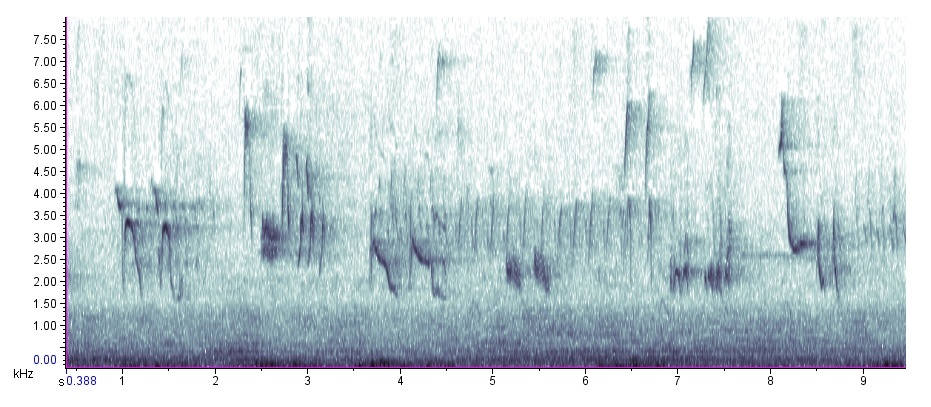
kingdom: Animalia
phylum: Chordata
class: Aves
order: Passeriformes
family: Mimidae
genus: Toxostoma
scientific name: Toxostoma rufum
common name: Brown thrasher
